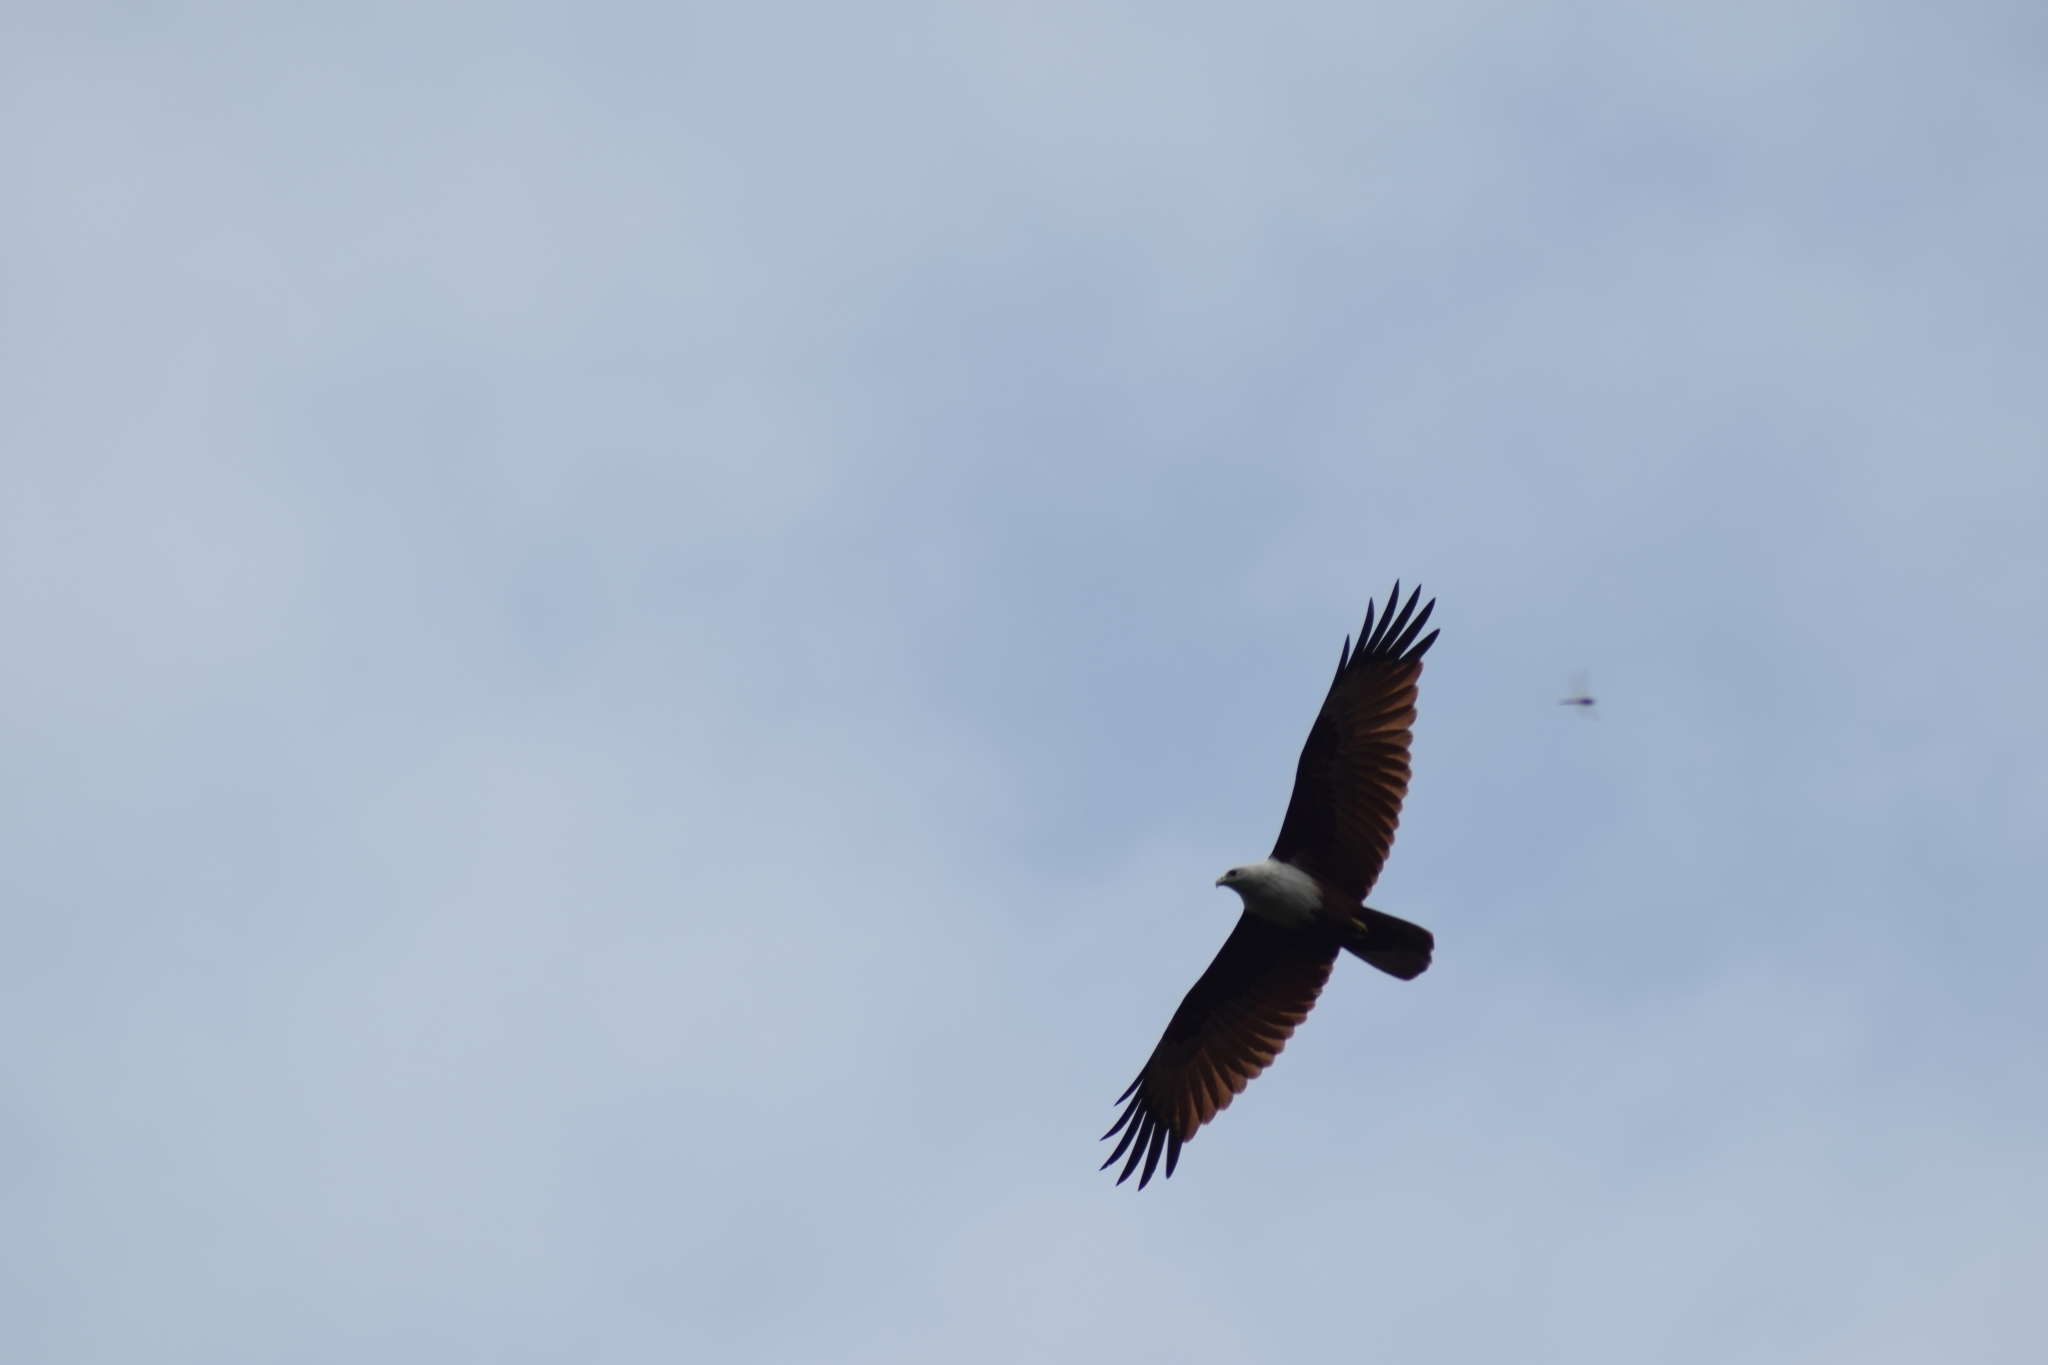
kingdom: Animalia
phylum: Chordata
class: Aves
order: Accipitriformes
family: Accipitridae
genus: Haliastur
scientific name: Haliastur indus
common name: Brahminy kite
